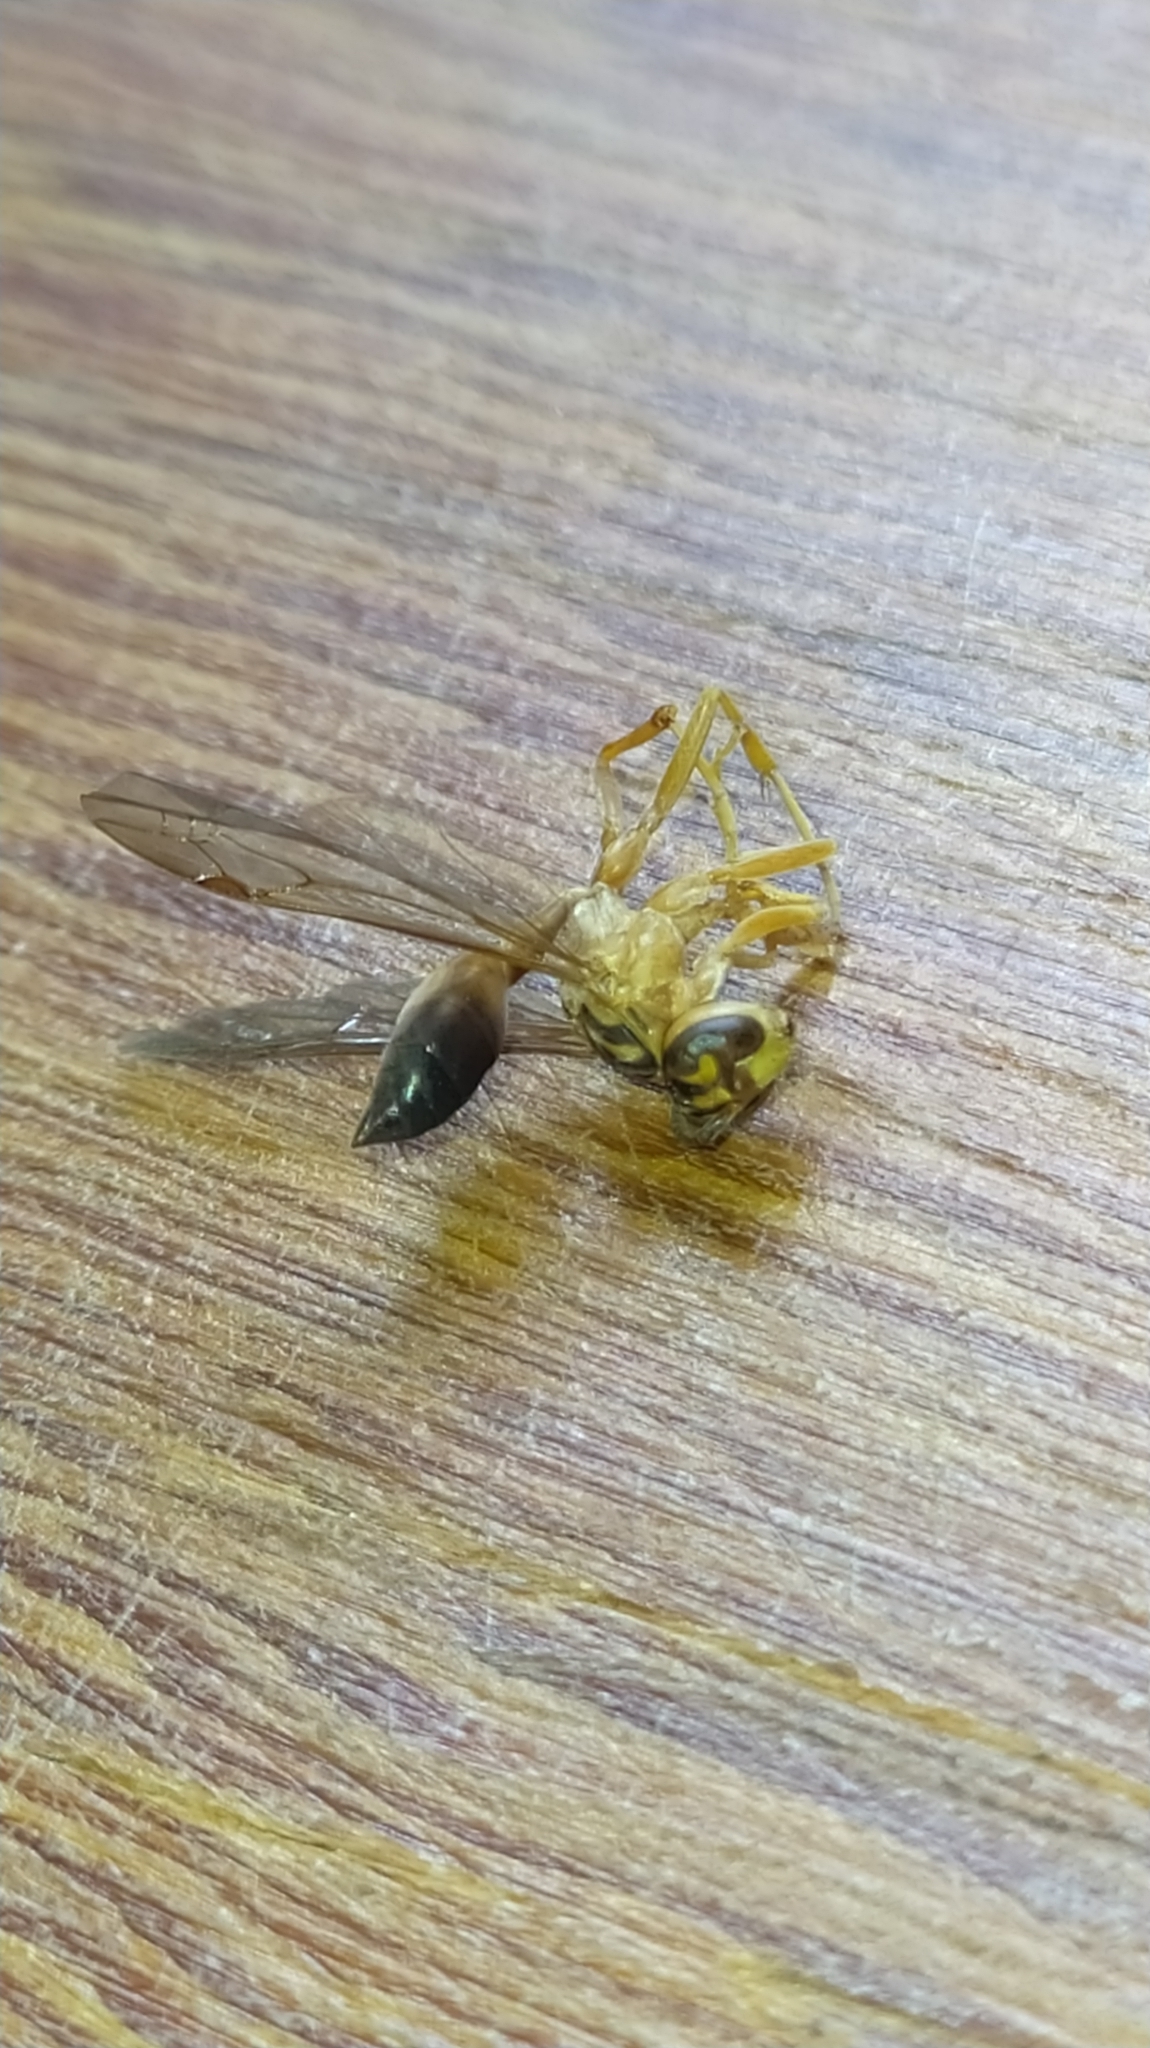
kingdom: Animalia
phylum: Arthropoda
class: Insecta
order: Hymenoptera
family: Vespidae
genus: Agelaia
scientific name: Agelaia pallipes
